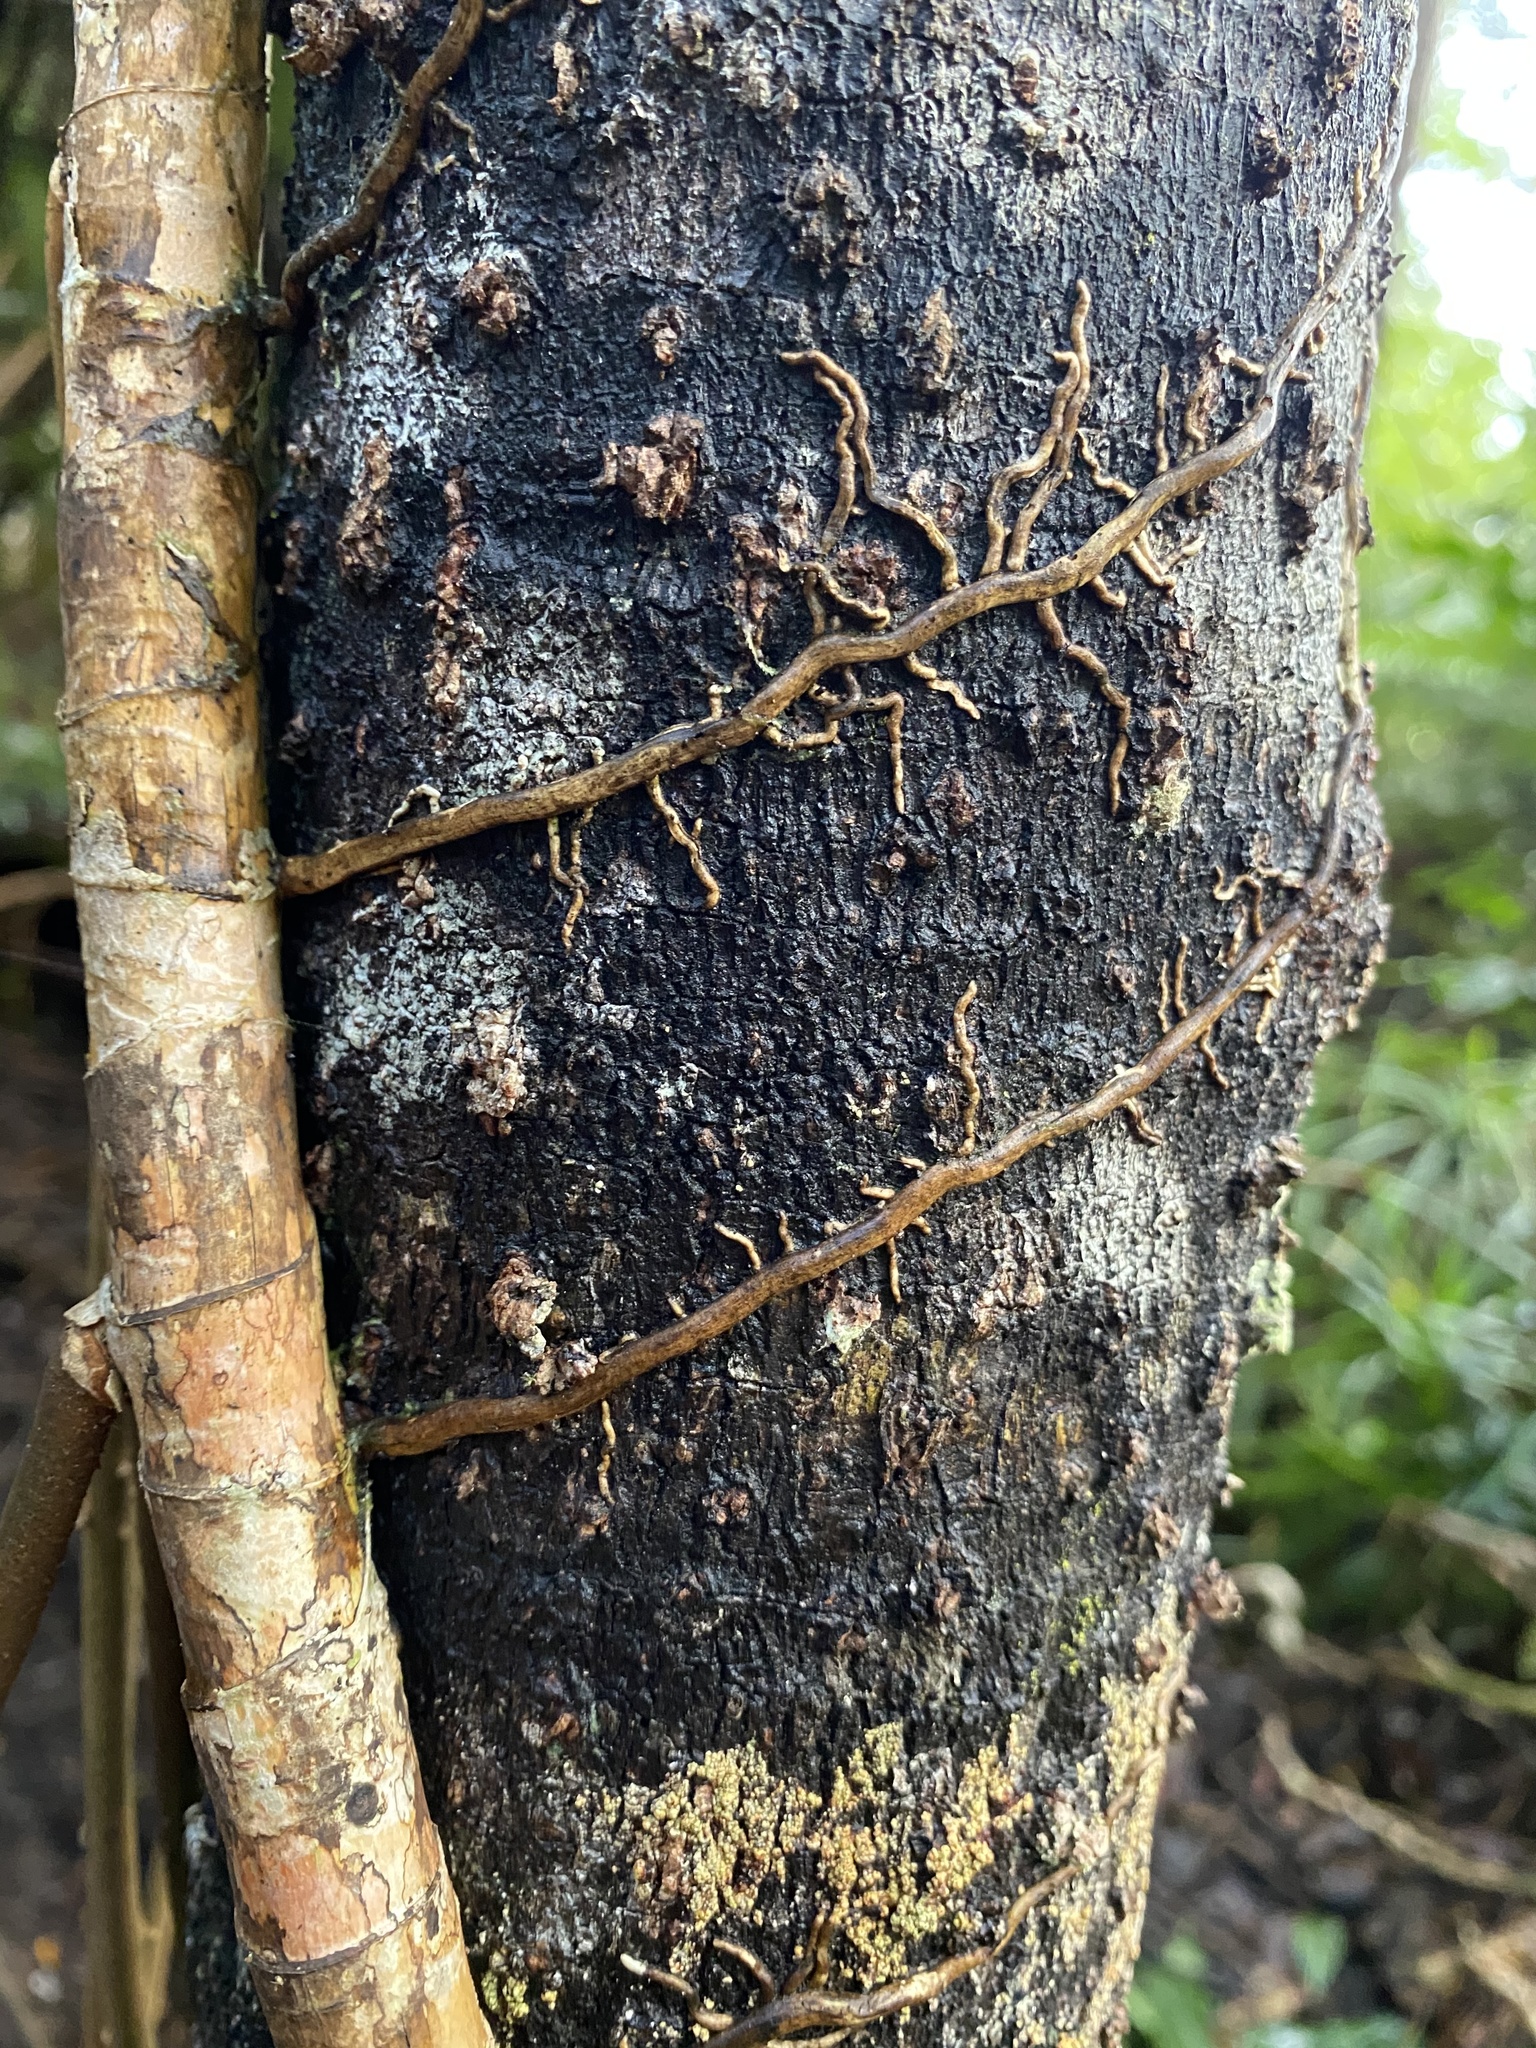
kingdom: Plantae
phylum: Tracheophyta
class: Liliopsida
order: Pandanales
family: Pandanaceae
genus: Freycinetia
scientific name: Freycinetia arborea
